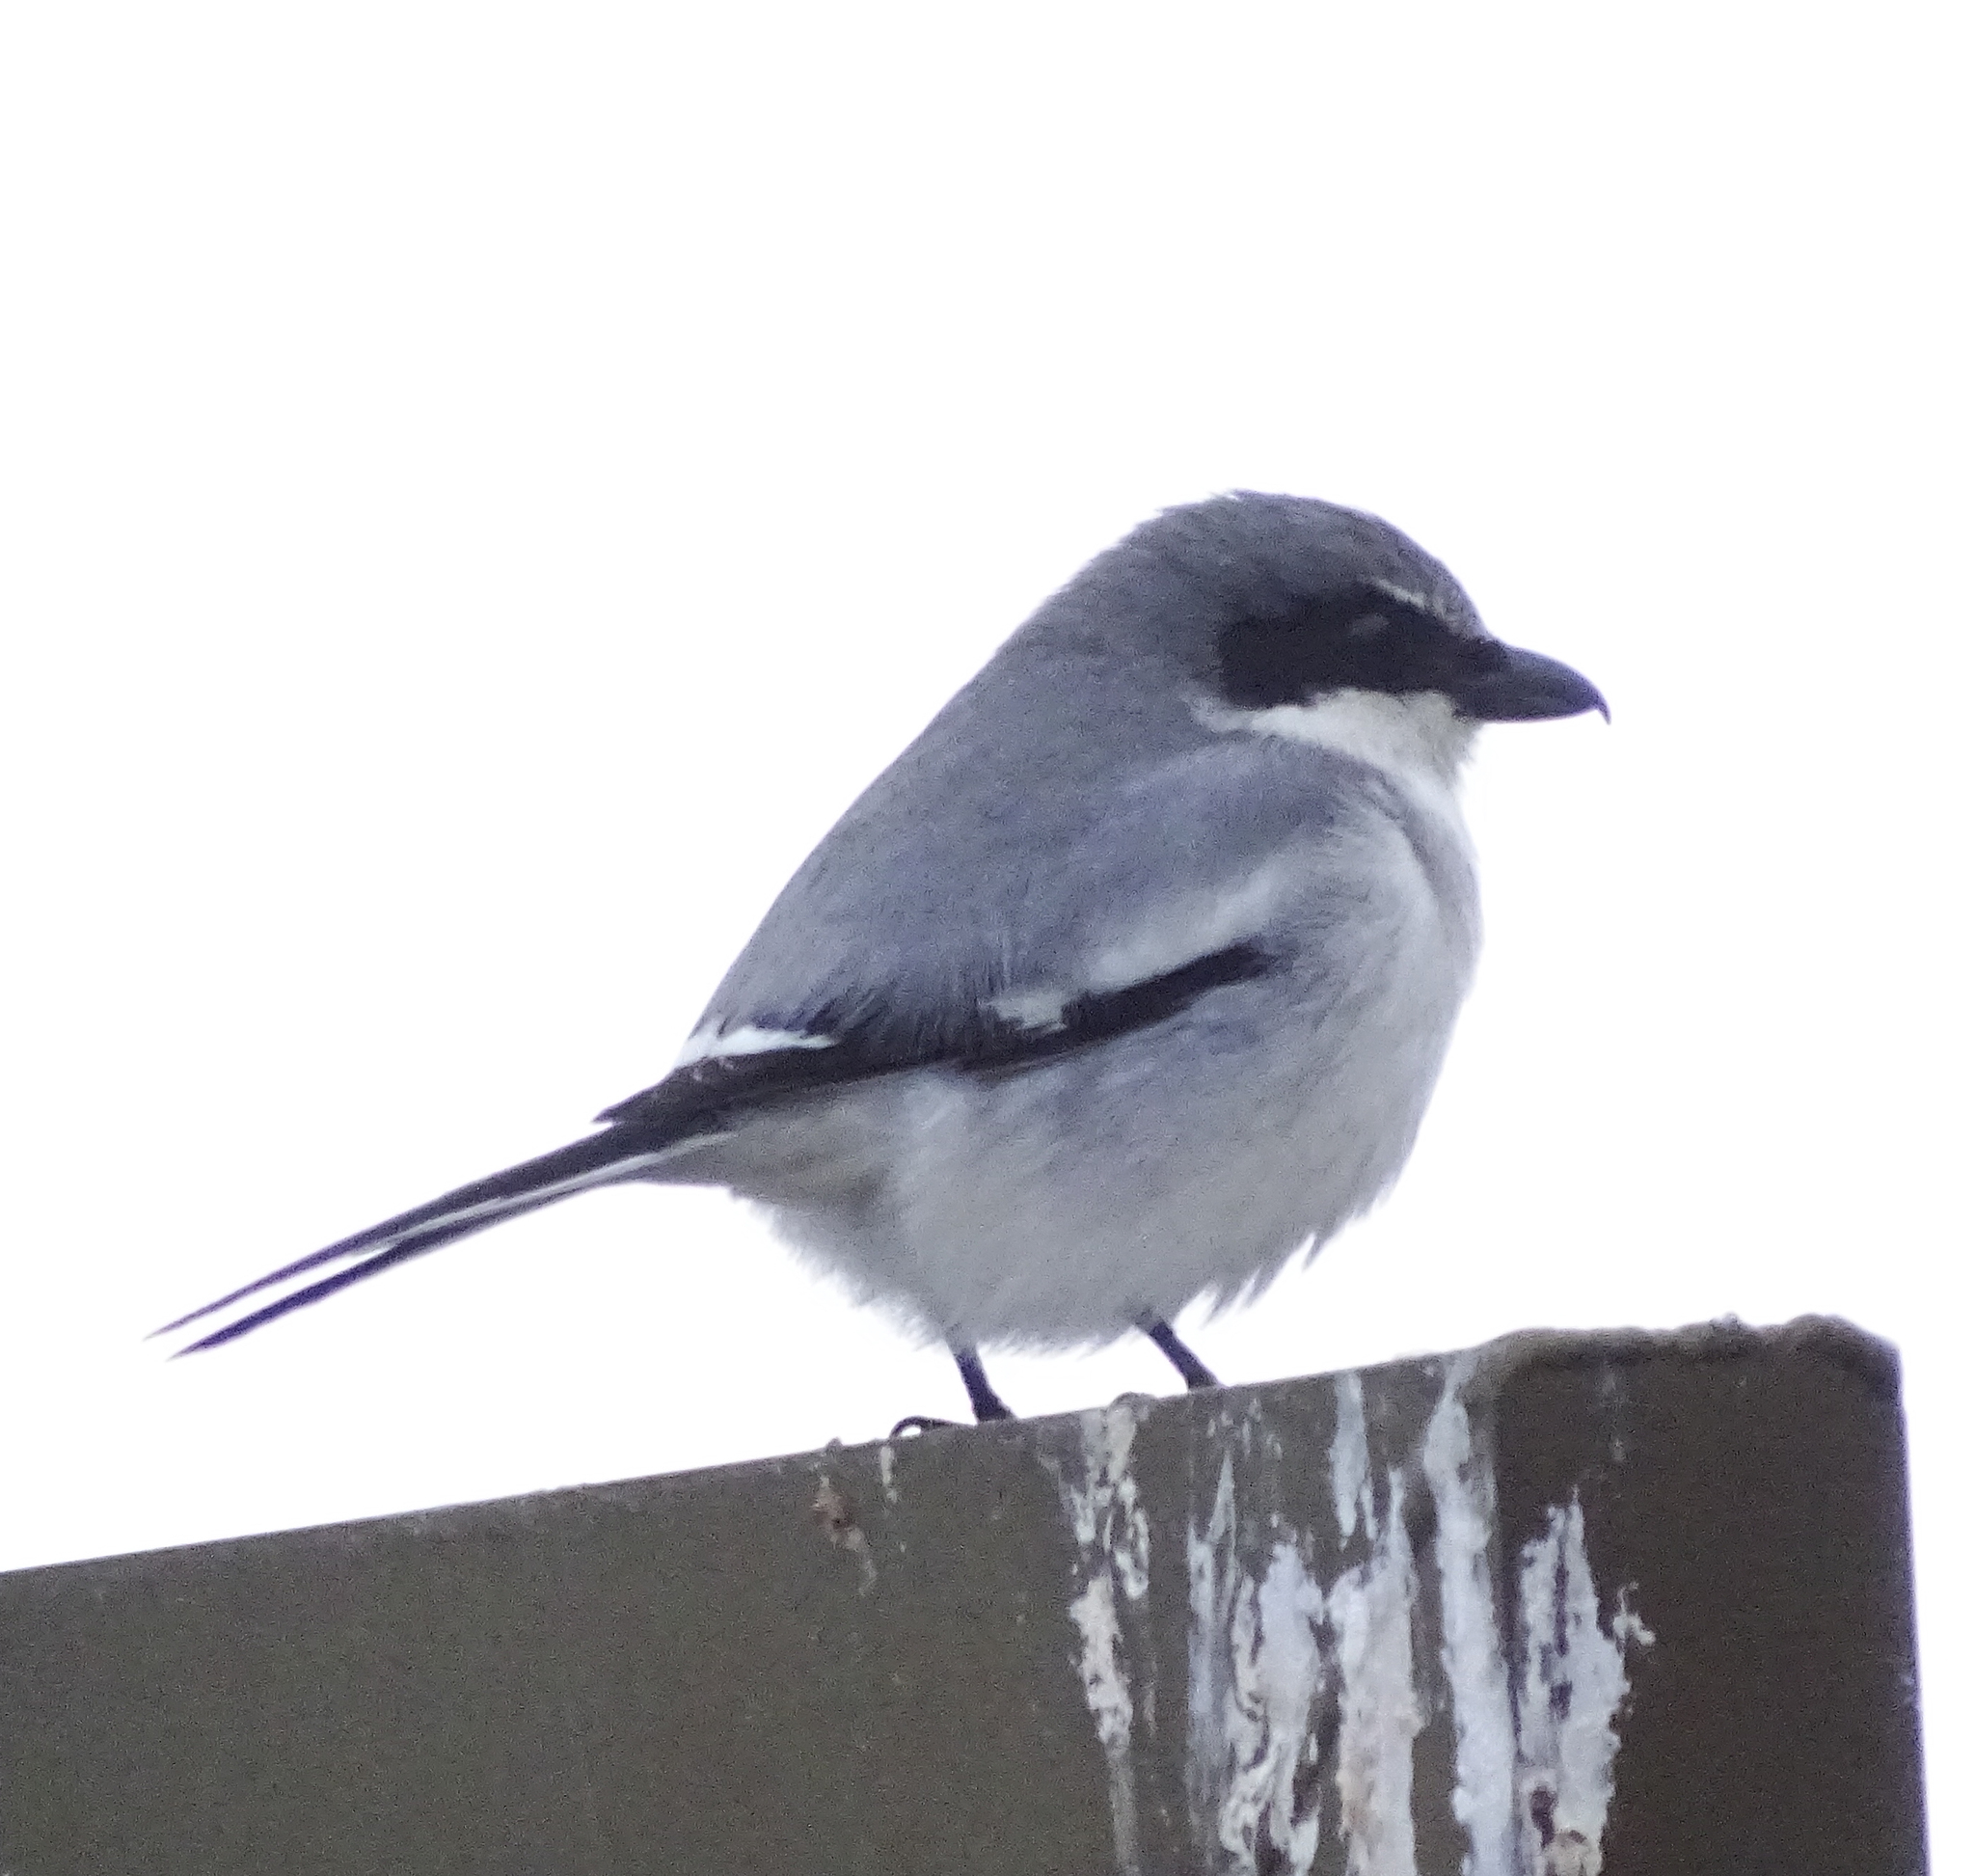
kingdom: Animalia
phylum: Chordata
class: Aves
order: Passeriformes
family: Laniidae
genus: Lanius
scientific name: Lanius ludovicianus
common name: Loggerhead shrike
